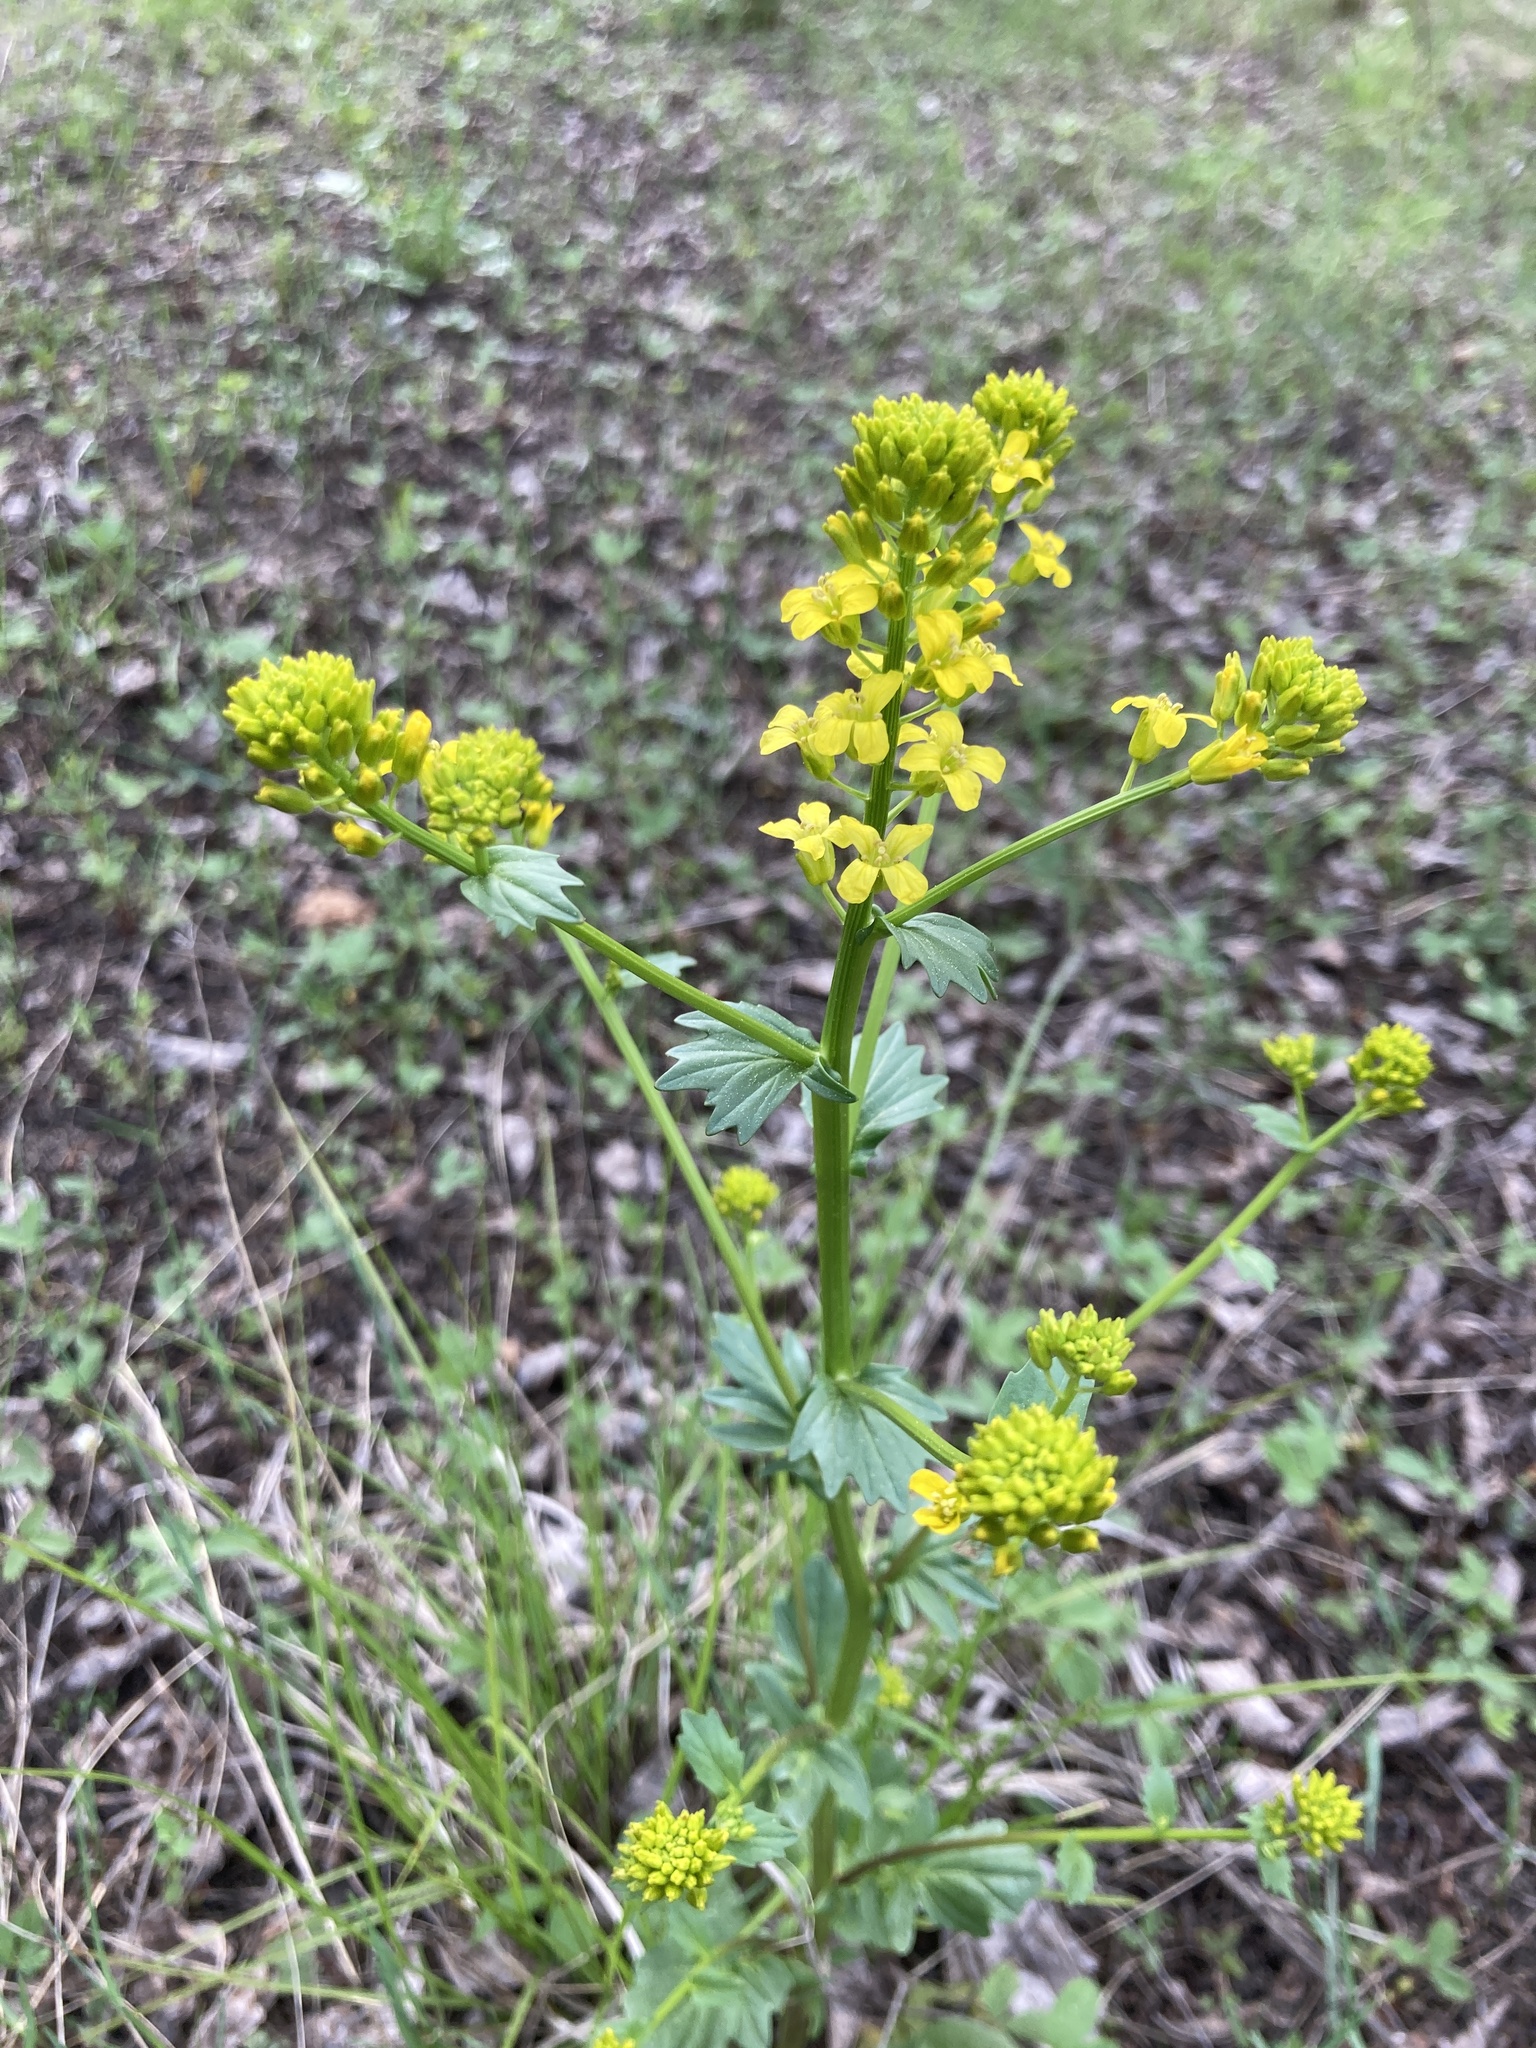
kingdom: Plantae
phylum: Tracheophyta
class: Magnoliopsida
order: Brassicales
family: Brassicaceae
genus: Barbarea
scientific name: Barbarea vulgaris
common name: Cressy-greens
